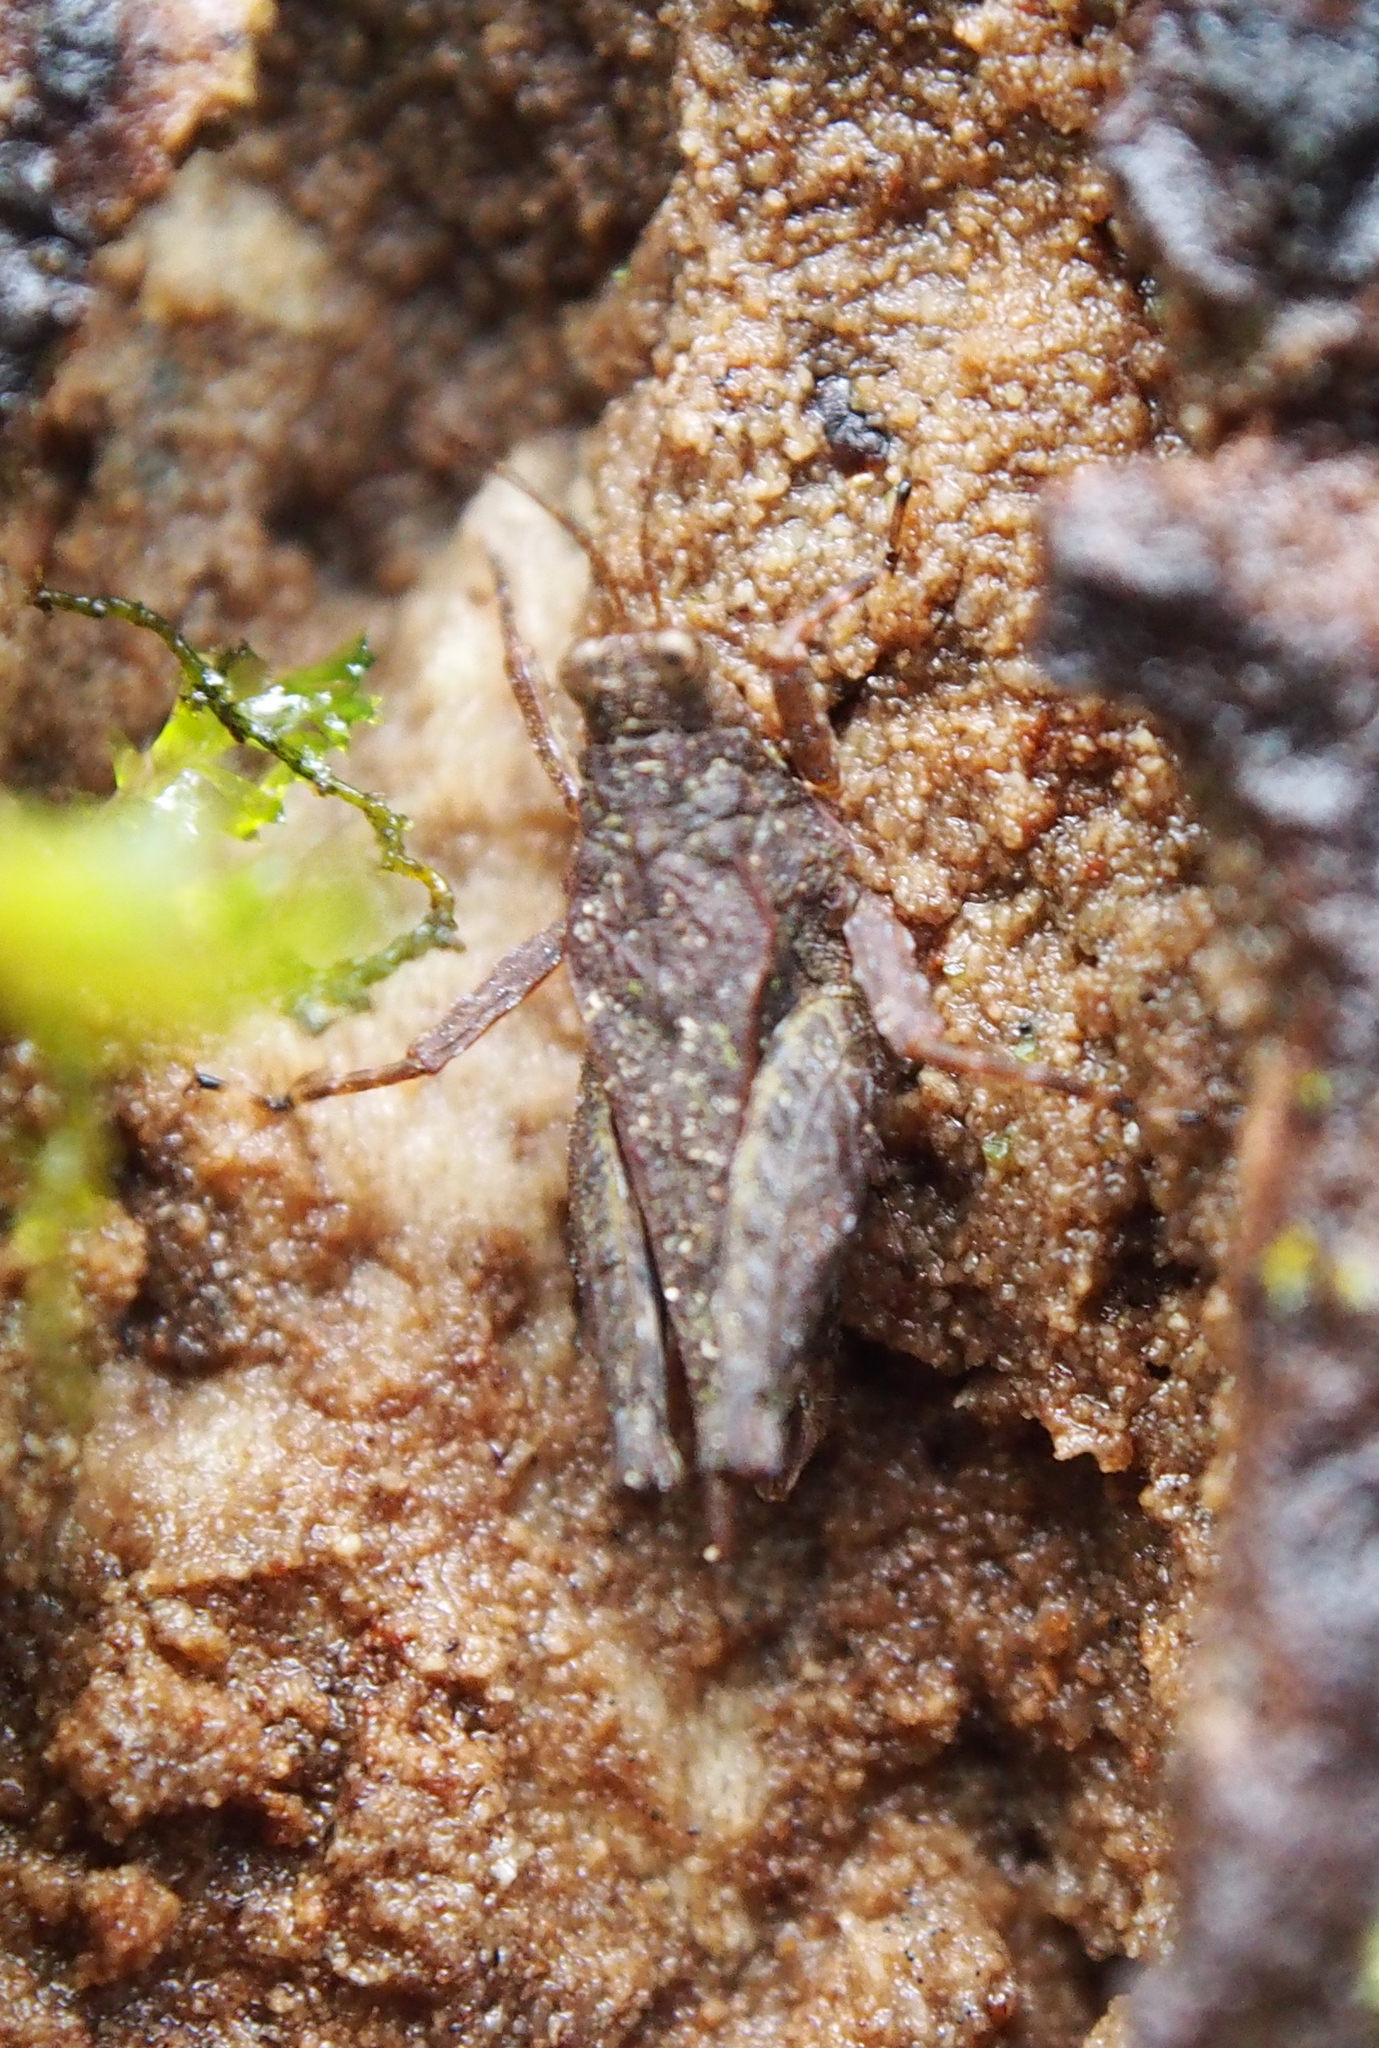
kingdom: Animalia
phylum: Arthropoda
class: Insecta
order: Orthoptera
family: Tetrigidae
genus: Otumba
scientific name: Otumba scapularis
